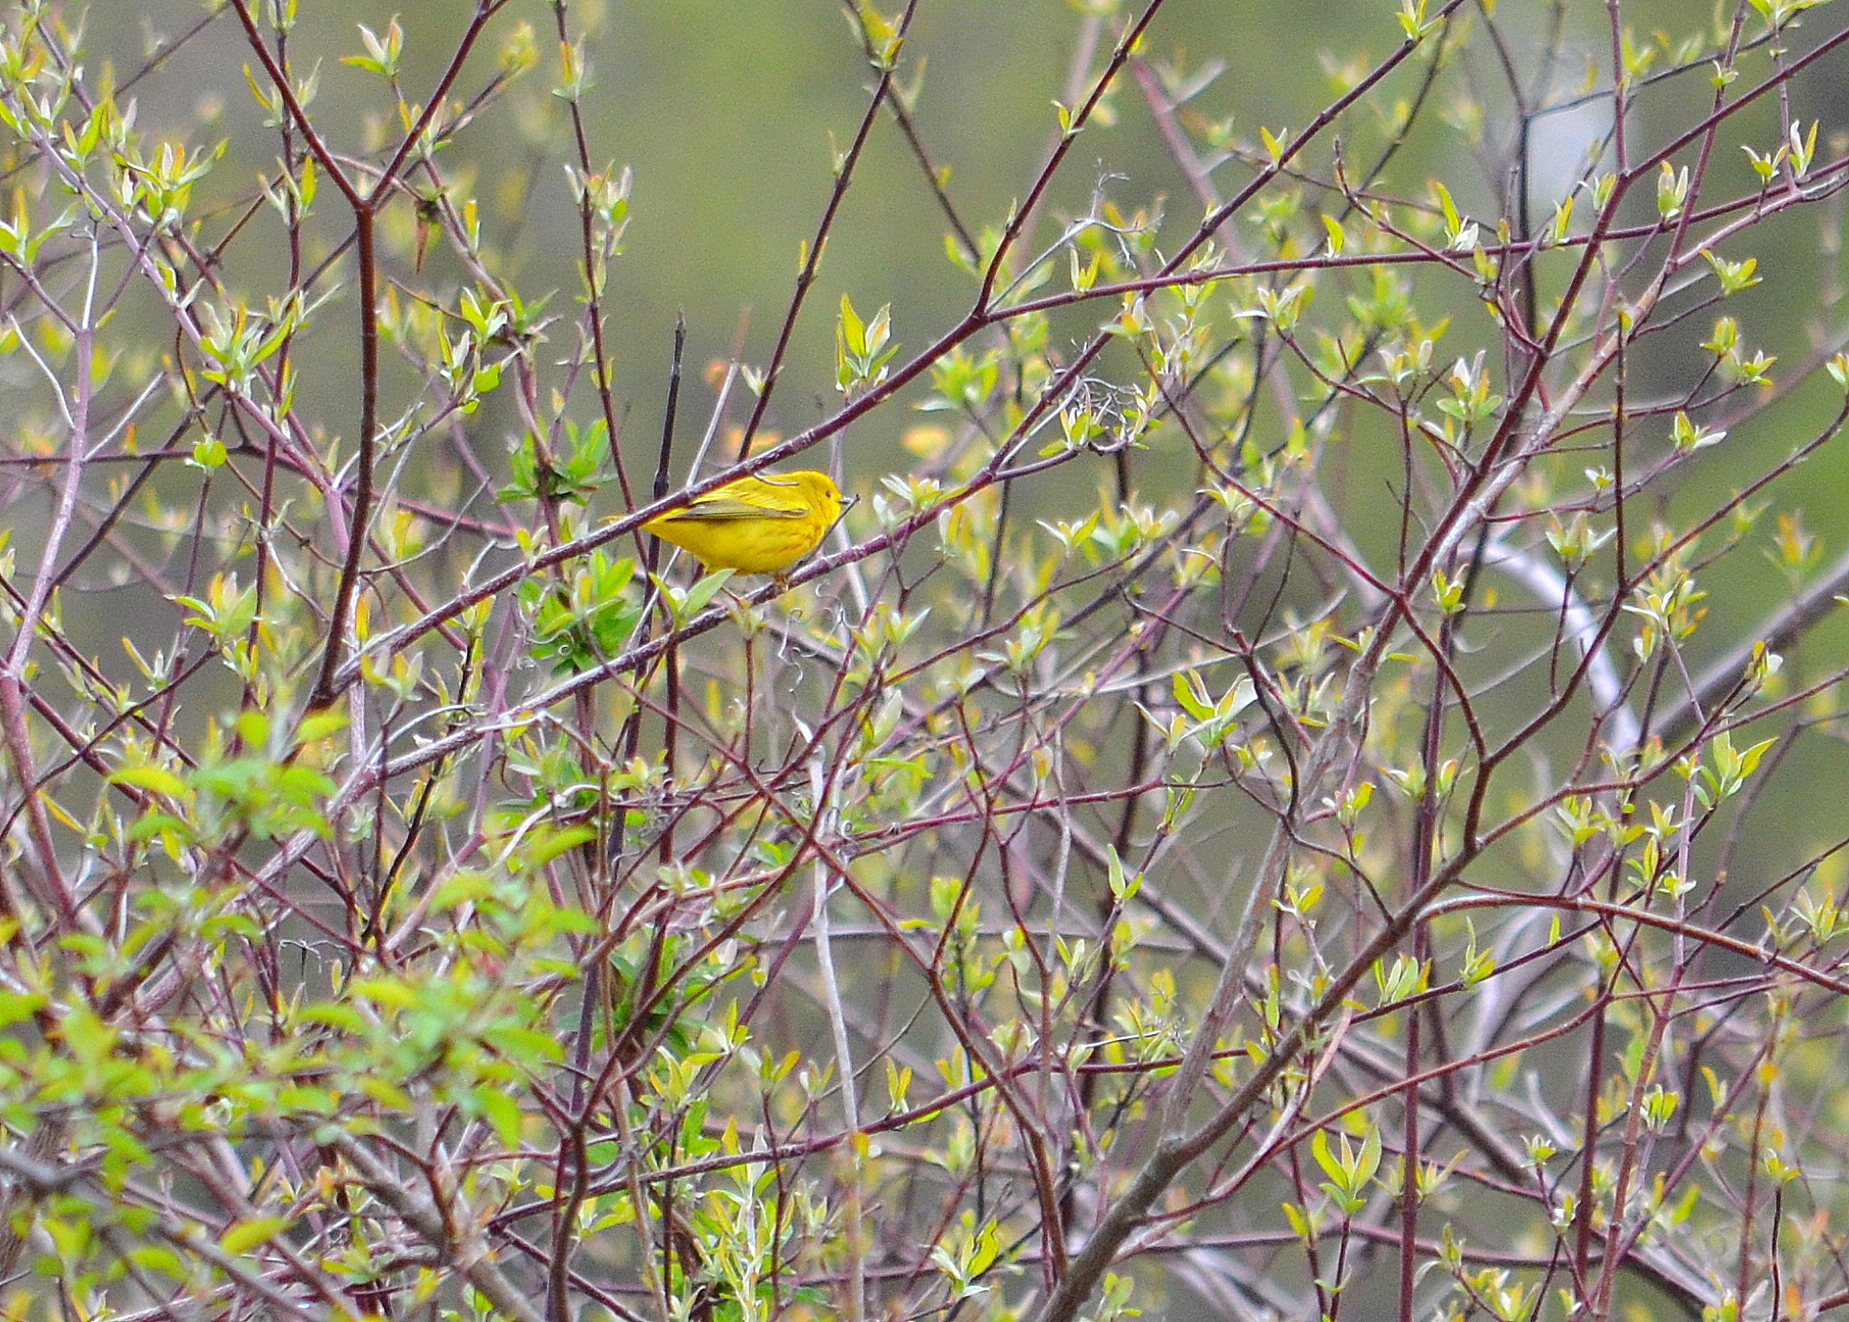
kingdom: Animalia
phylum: Chordata
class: Aves
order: Passeriformes
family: Parulidae
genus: Setophaga
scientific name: Setophaga petechia
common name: Yellow warbler
